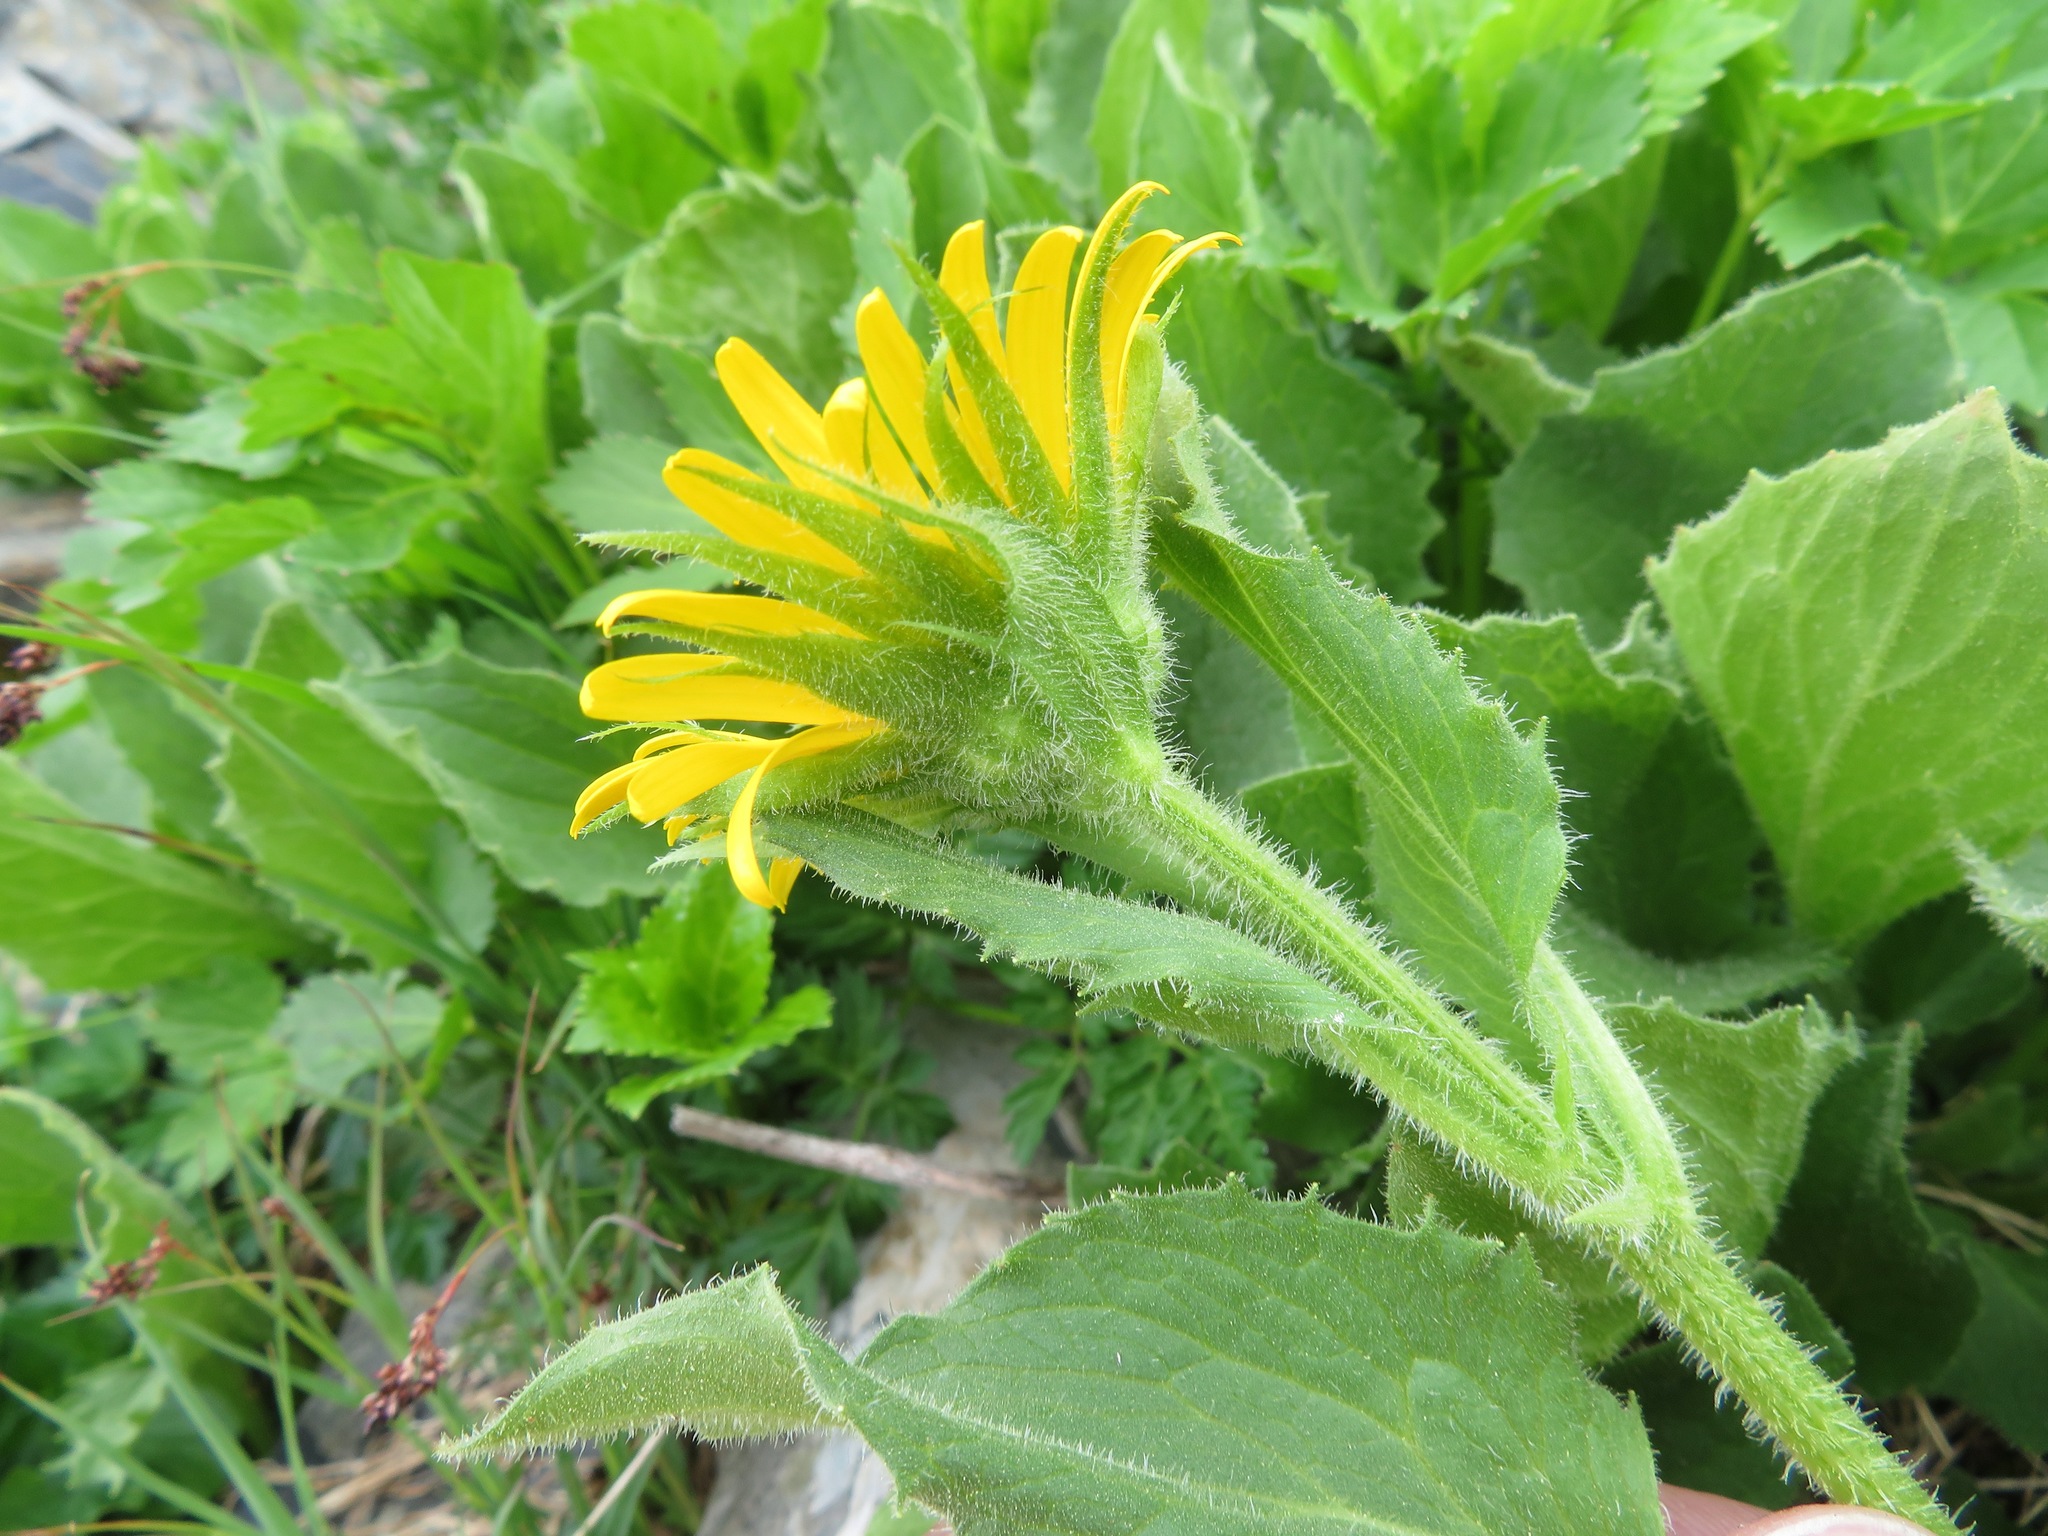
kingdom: Plantae
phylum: Tracheophyta
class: Magnoliopsida
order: Asterales
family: Asteraceae
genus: Doronicum
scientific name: Doronicum grandiflorum
